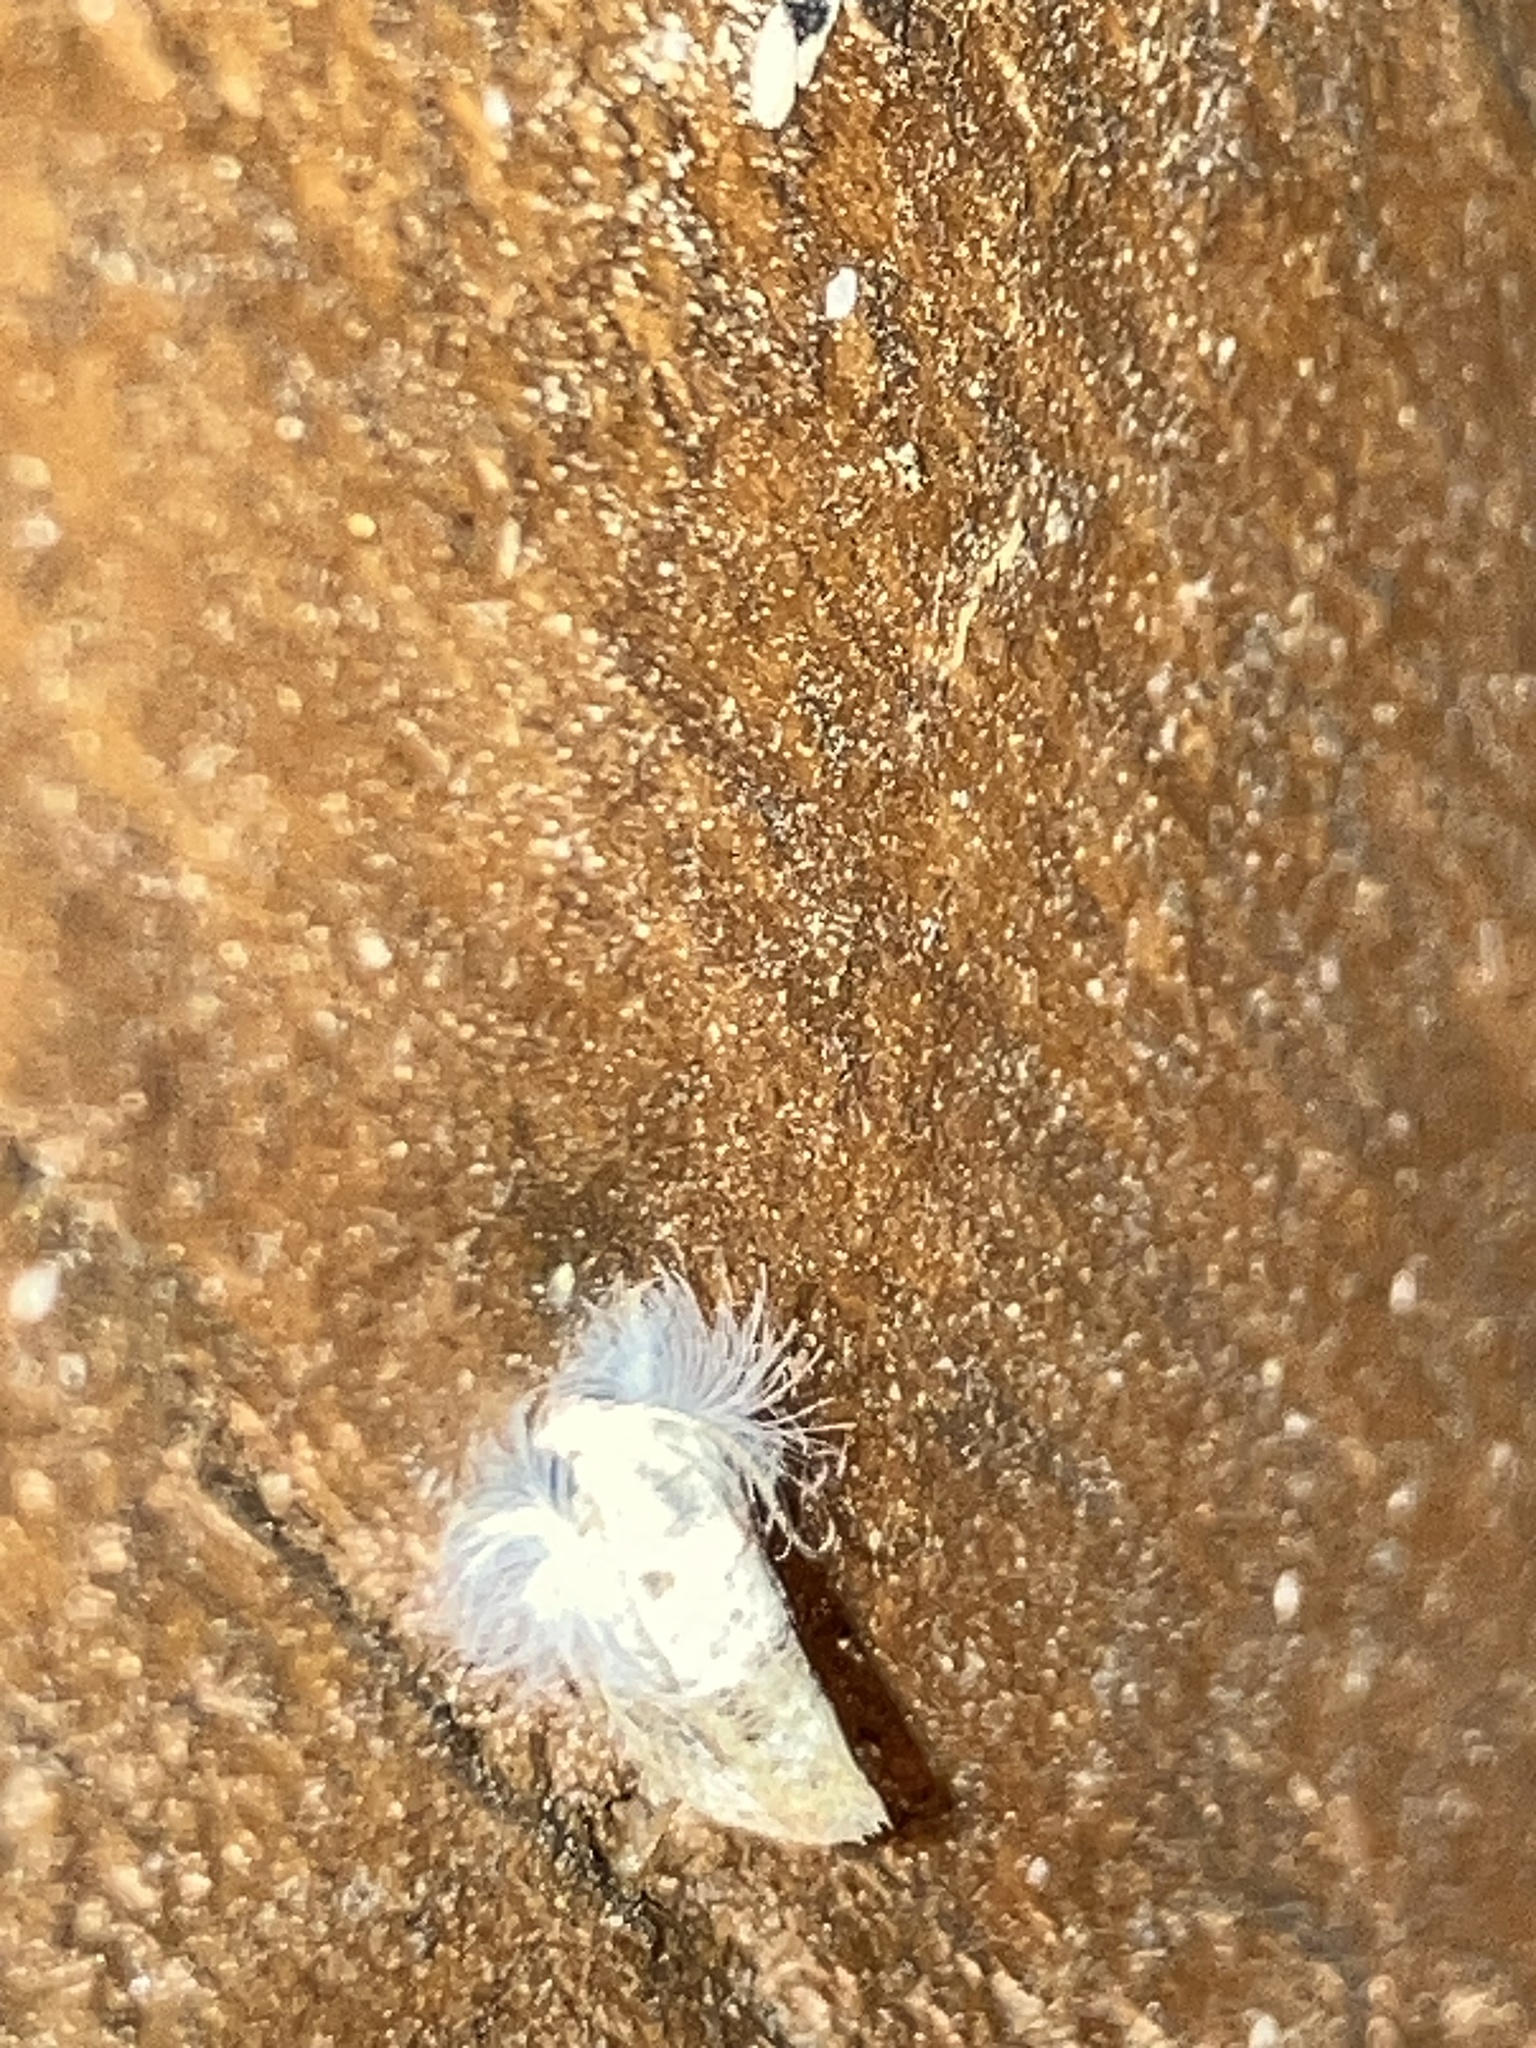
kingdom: Animalia
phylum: Arthropoda
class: Insecta
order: Lepidoptera
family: Tineidae
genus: Acrolophus
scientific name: Acrolophus mycetophagus
